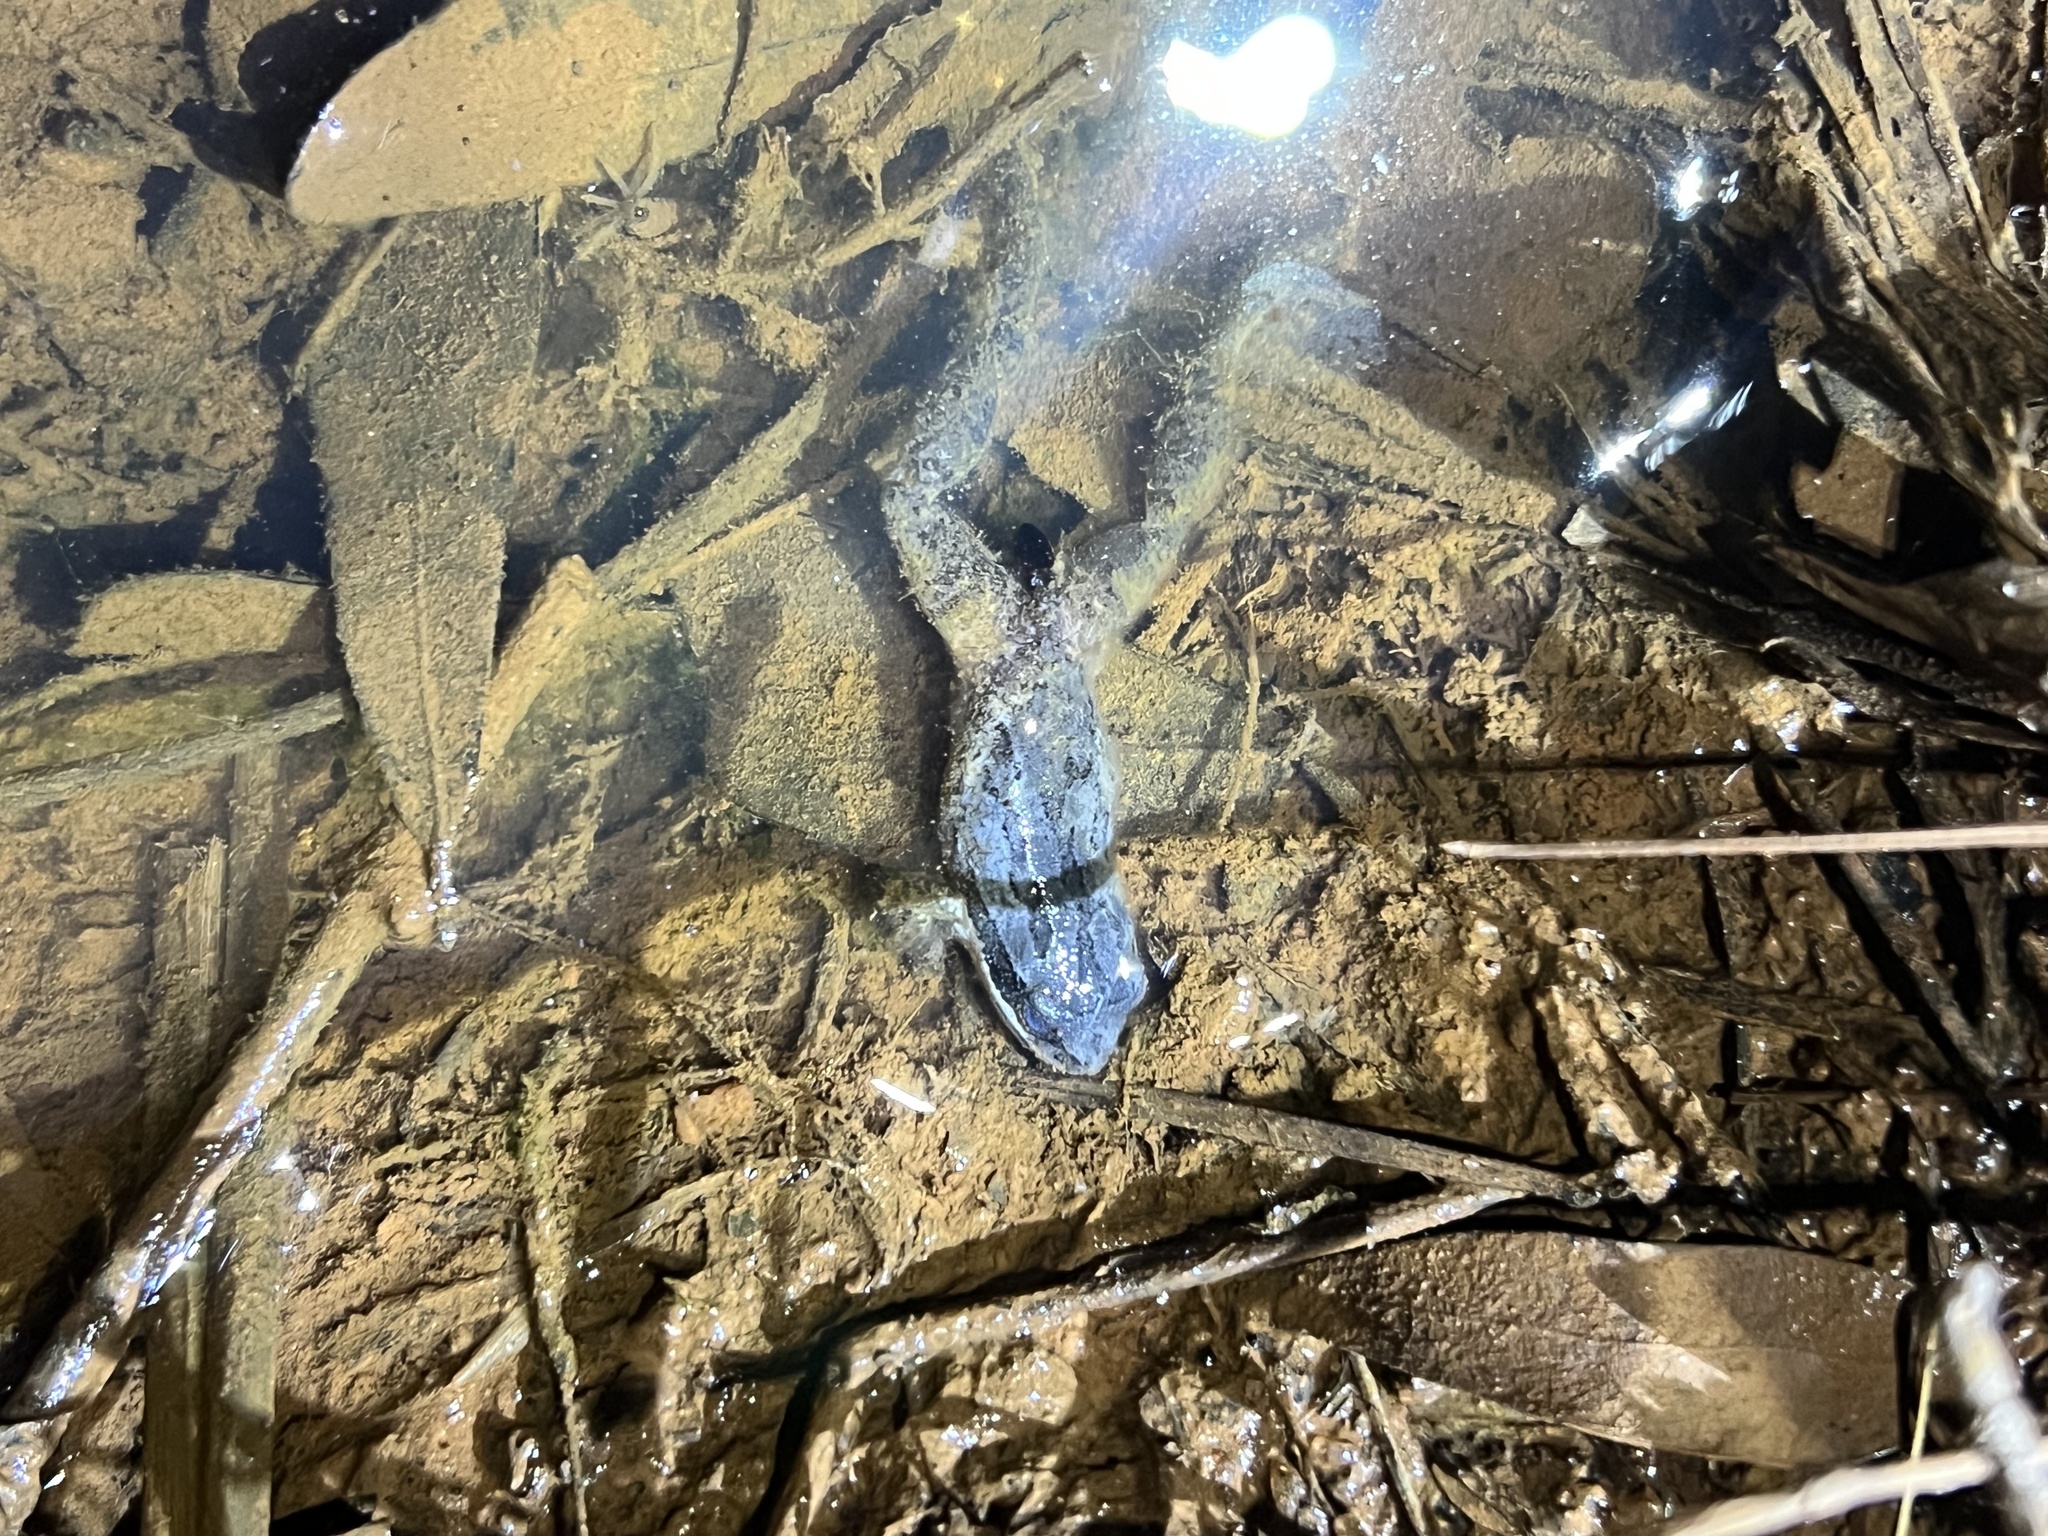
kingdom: Animalia
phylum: Chordata
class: Amphibia
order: Anura
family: Hylidae
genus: Pseudacris
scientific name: Pseudacris feriarum
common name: Upland chorus frog
